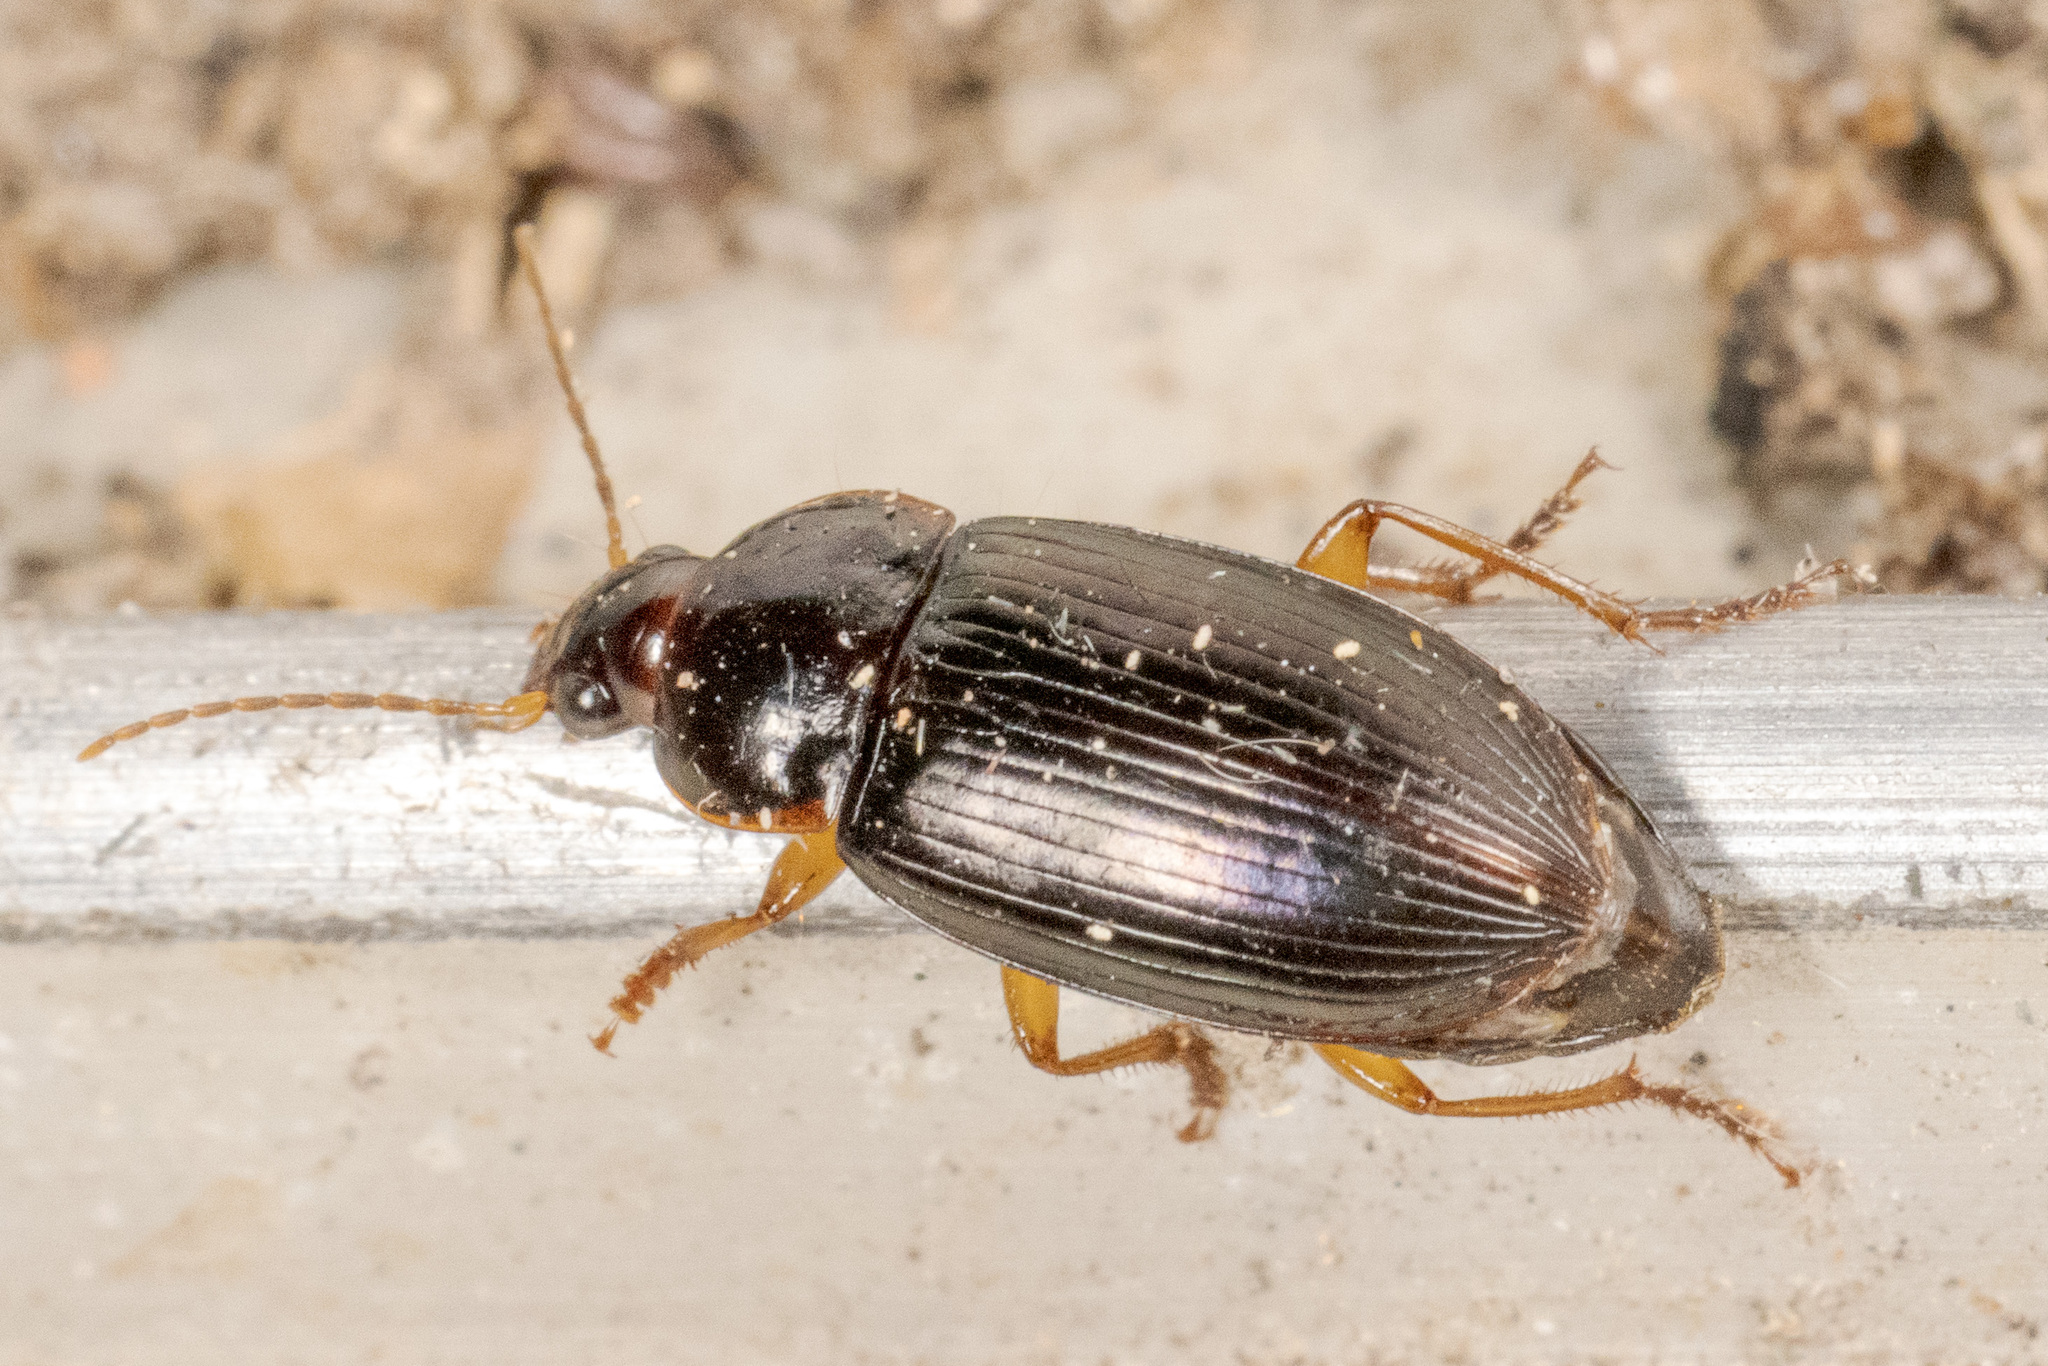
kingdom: Animalia
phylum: Arthropoda
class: Insecta
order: Coleoptera
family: Carabidae
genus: Notiobia
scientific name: Notiobia terminata
